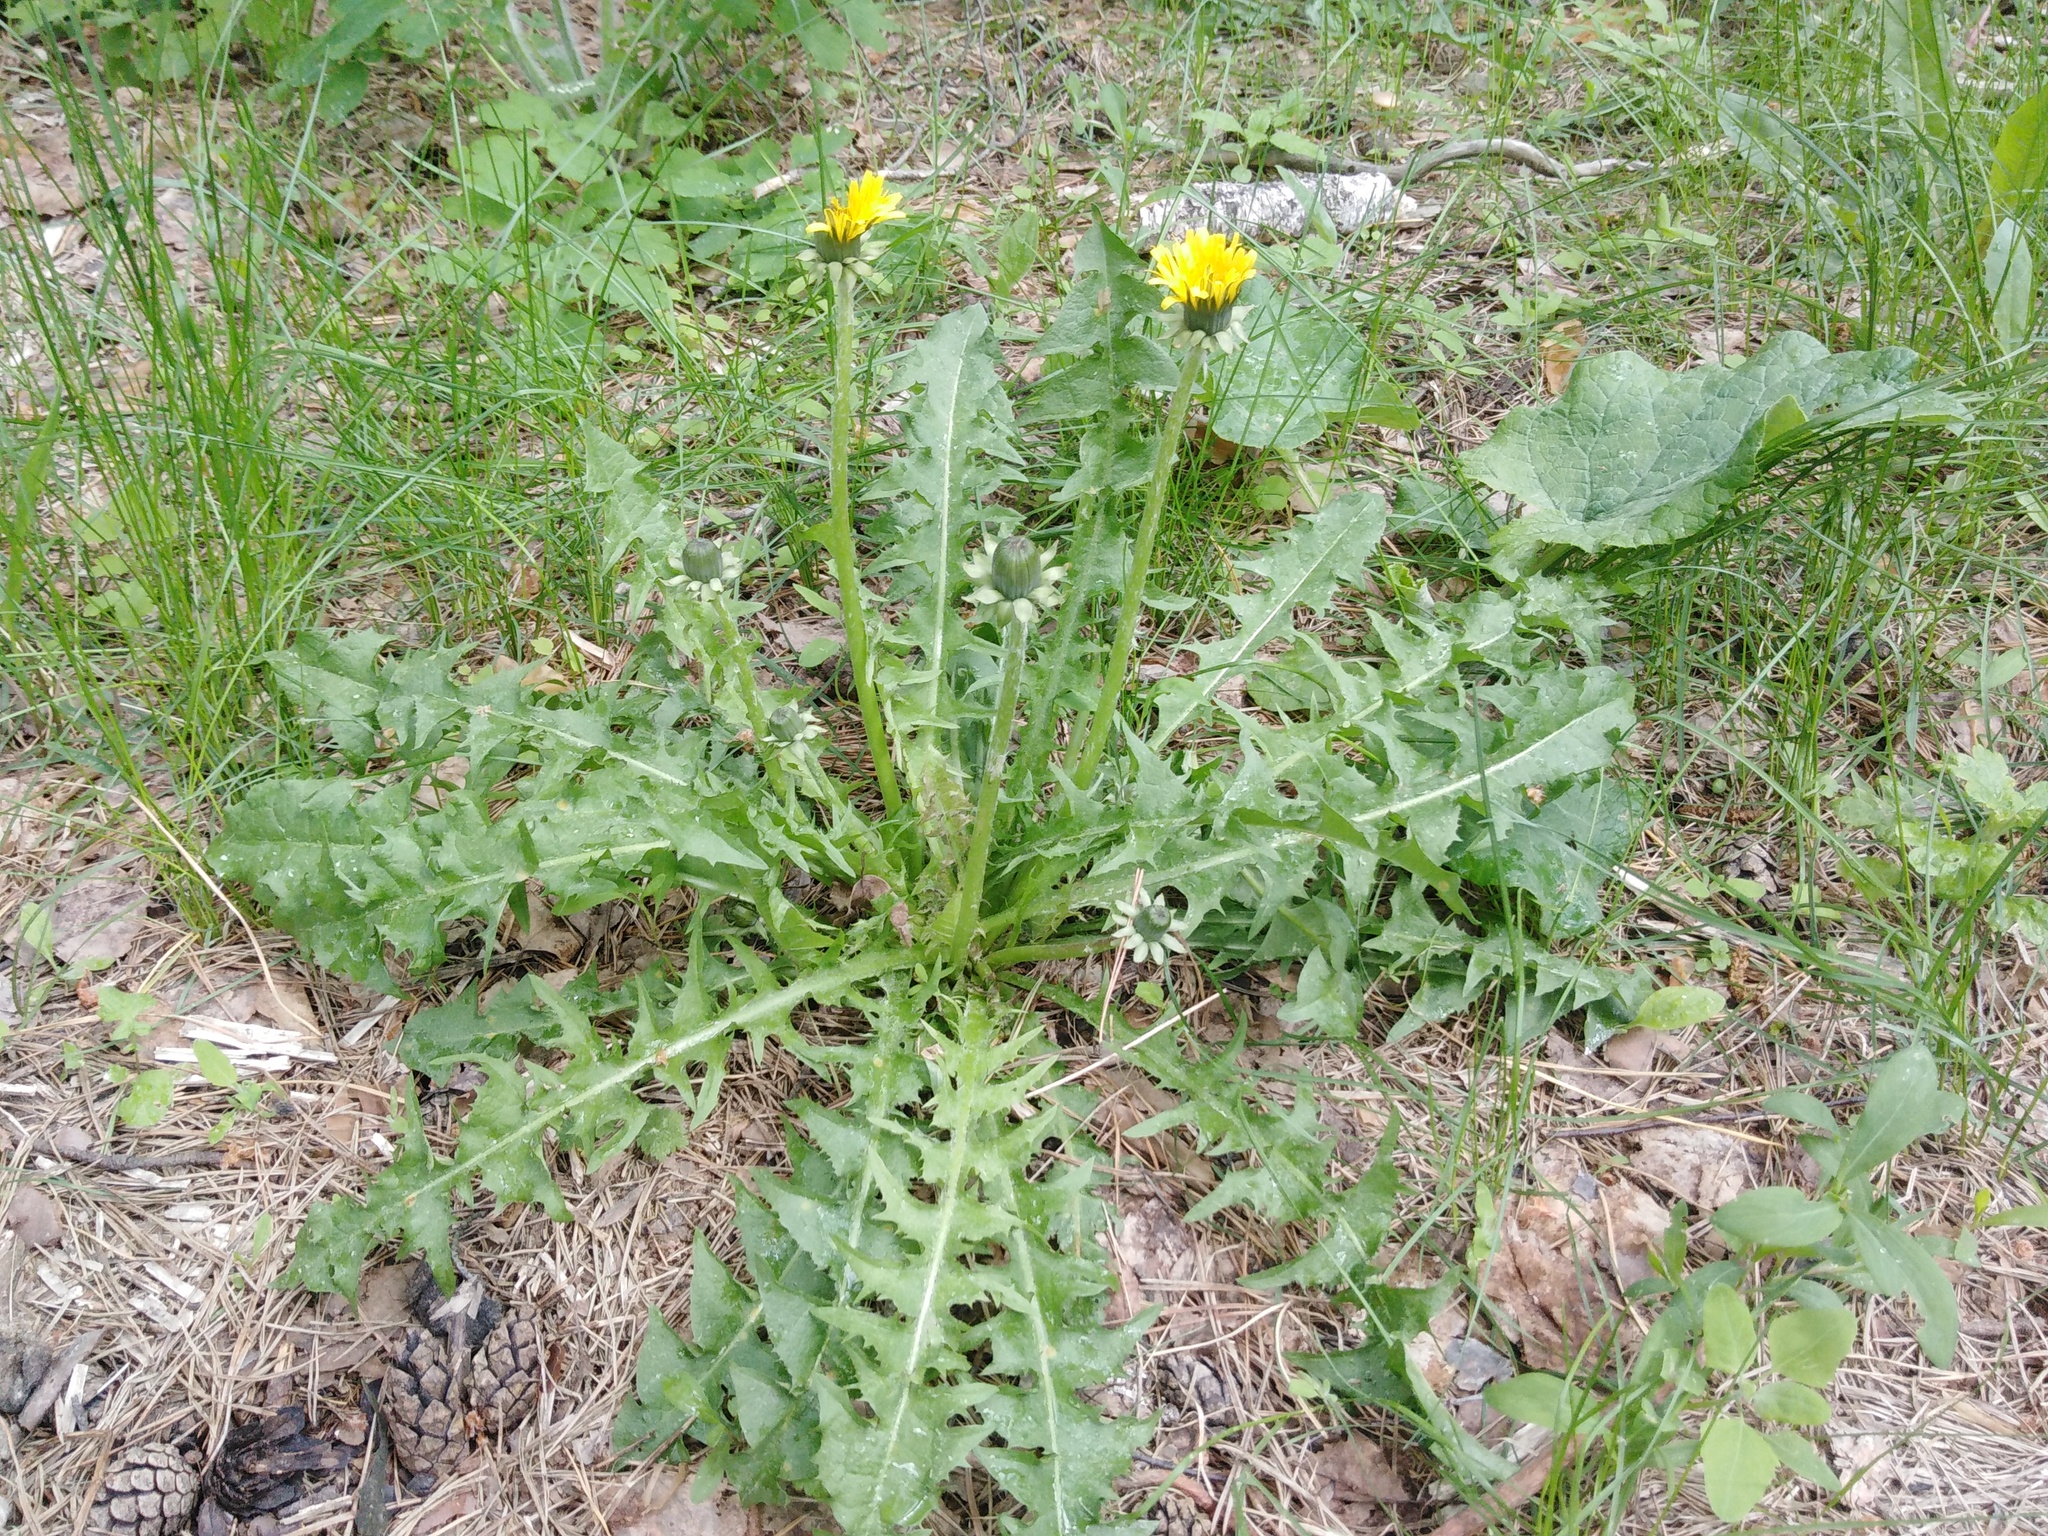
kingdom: Plantae
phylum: Tracheophyta
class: Magnoliopsida
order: Asterales
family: Asteraceae
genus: Taraxacum
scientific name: Taraxacum officinale
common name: Common dandelion
